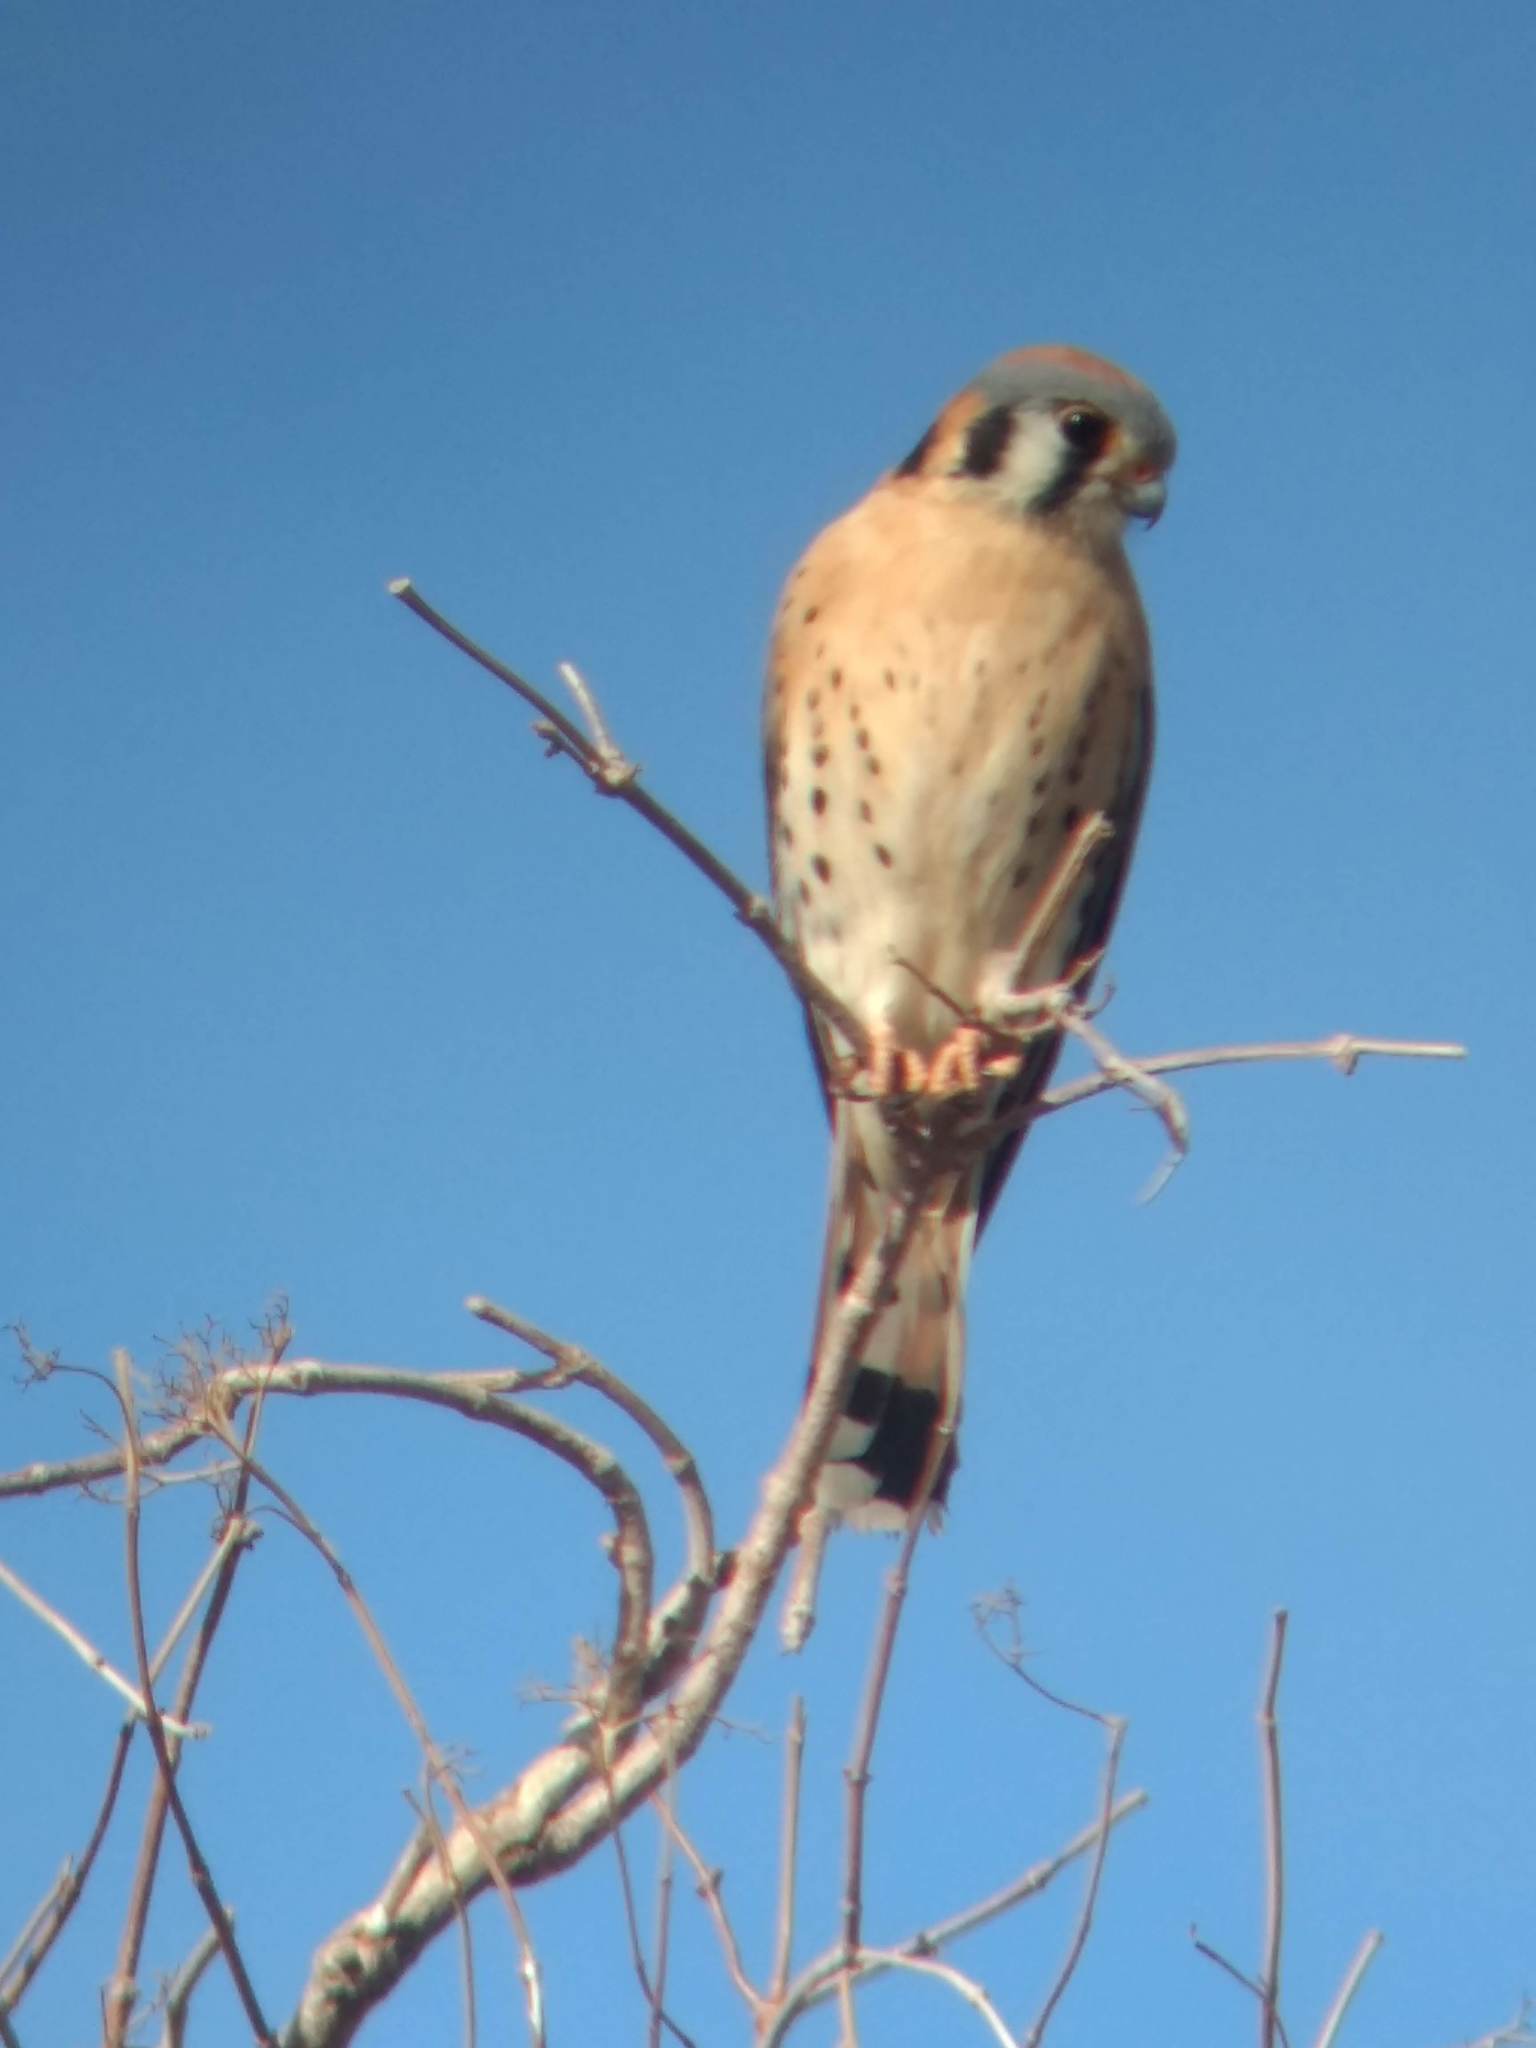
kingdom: Animalia
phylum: Chordata
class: Aves
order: Falconiformes
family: Falconidae
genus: Falco
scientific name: Falco sparverius
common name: American kestrel
